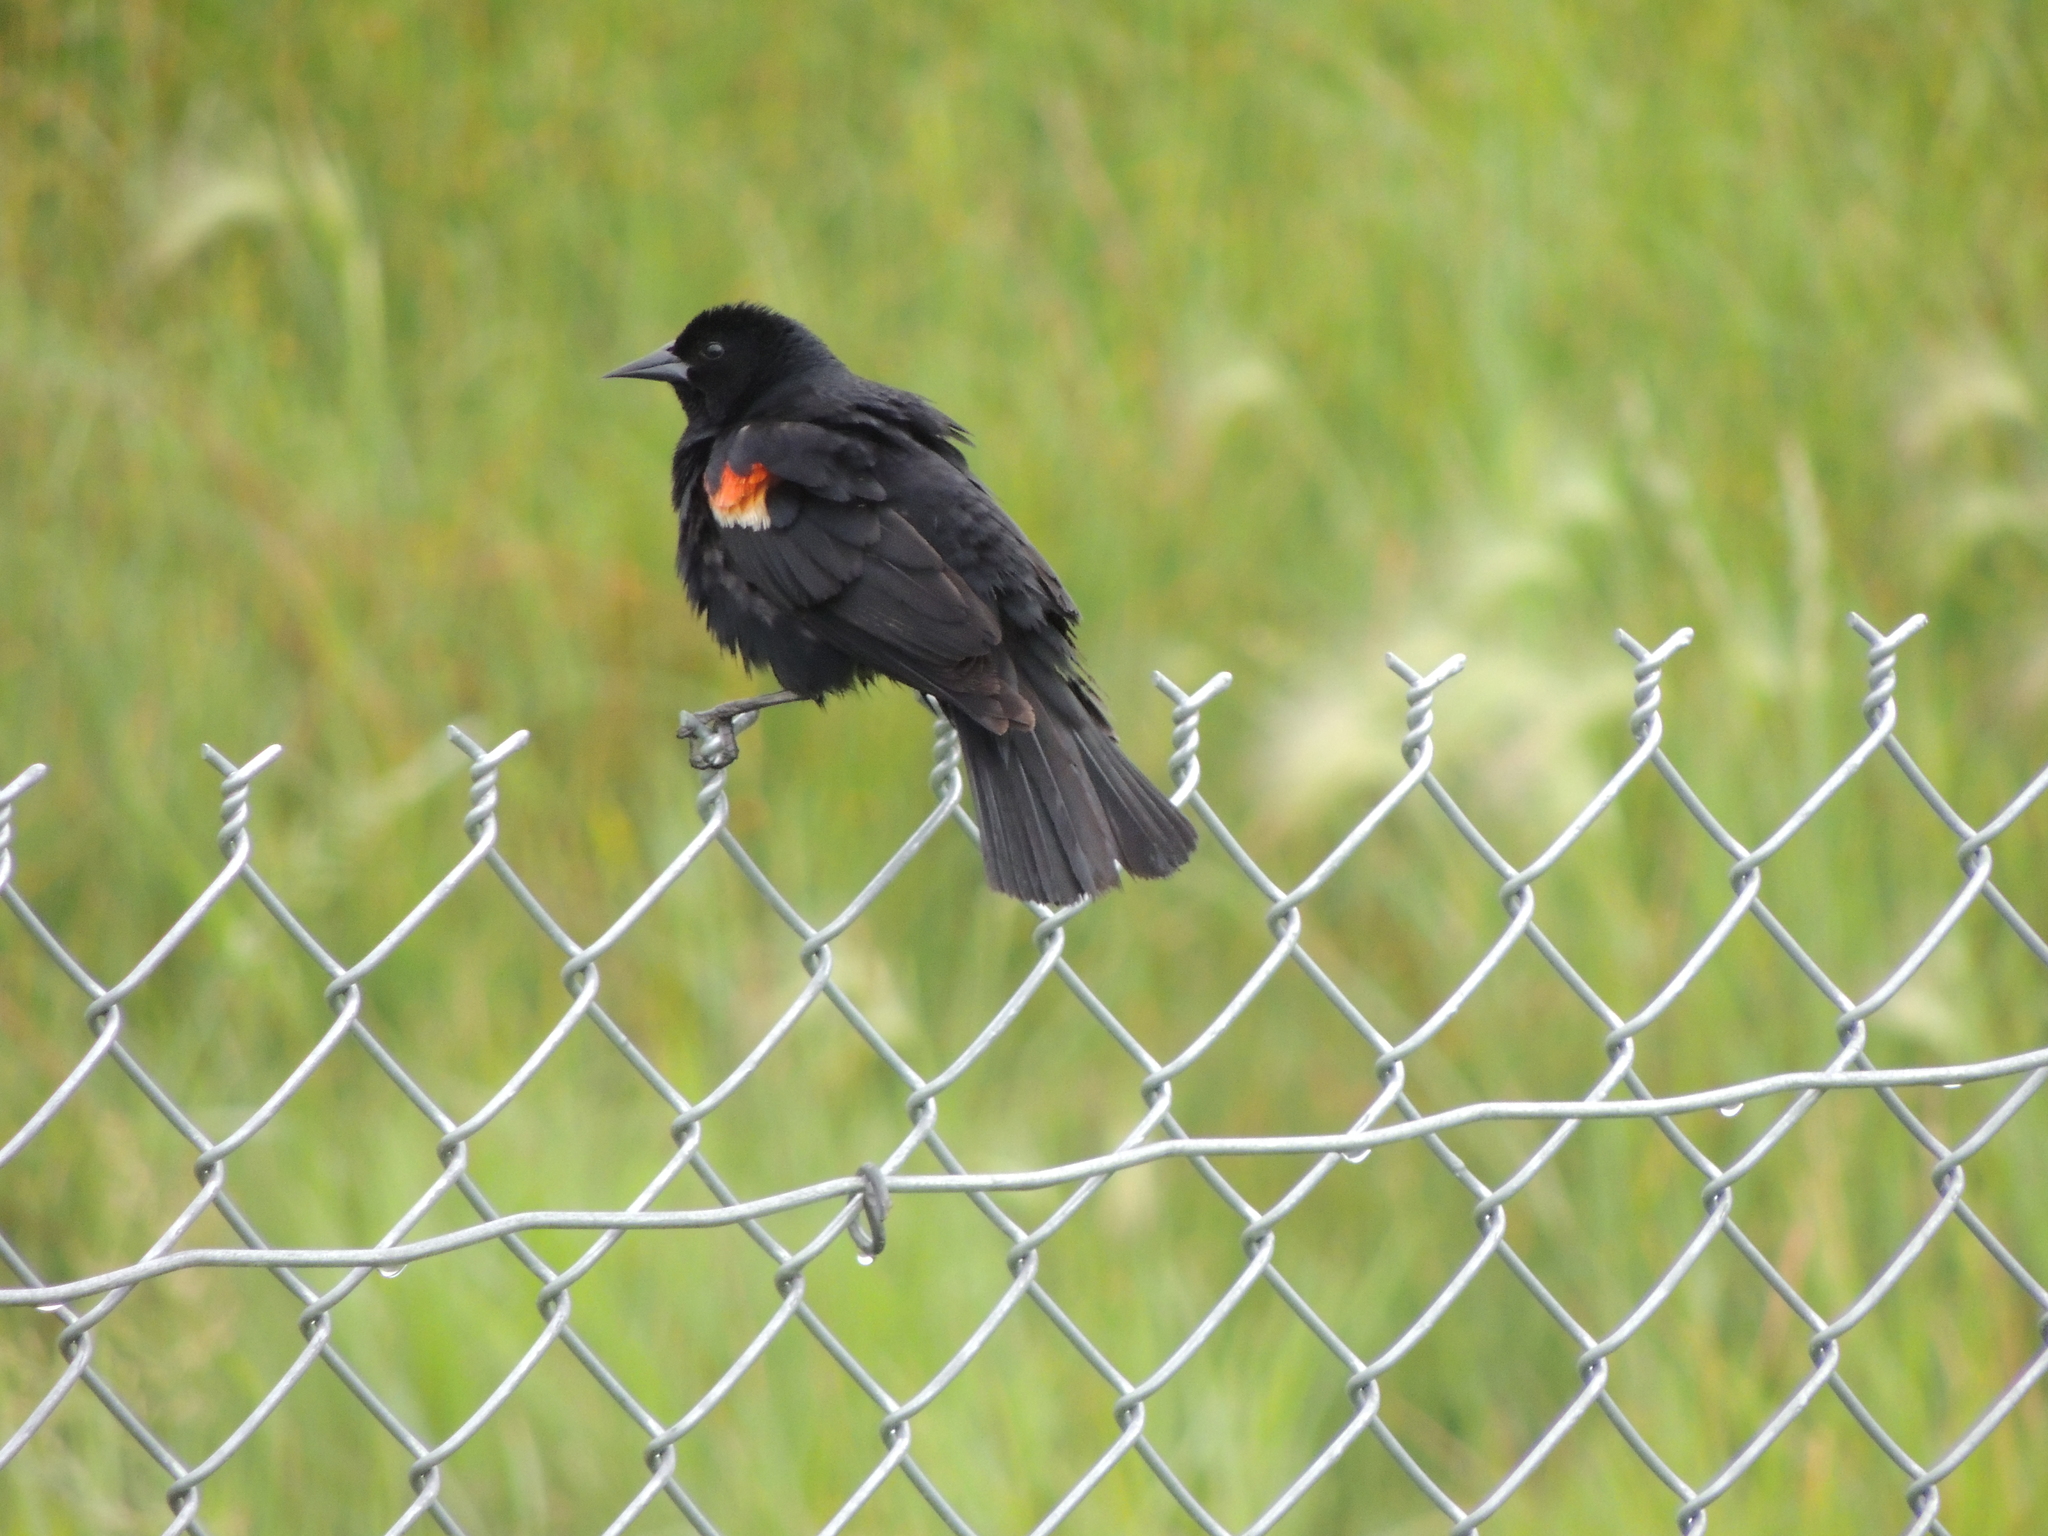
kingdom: Animalia
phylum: Chordata
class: Aves
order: Passeriformes
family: Icteridae
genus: Agelaius
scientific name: Agelaius phoeniceus
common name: Red-winged blackbird
